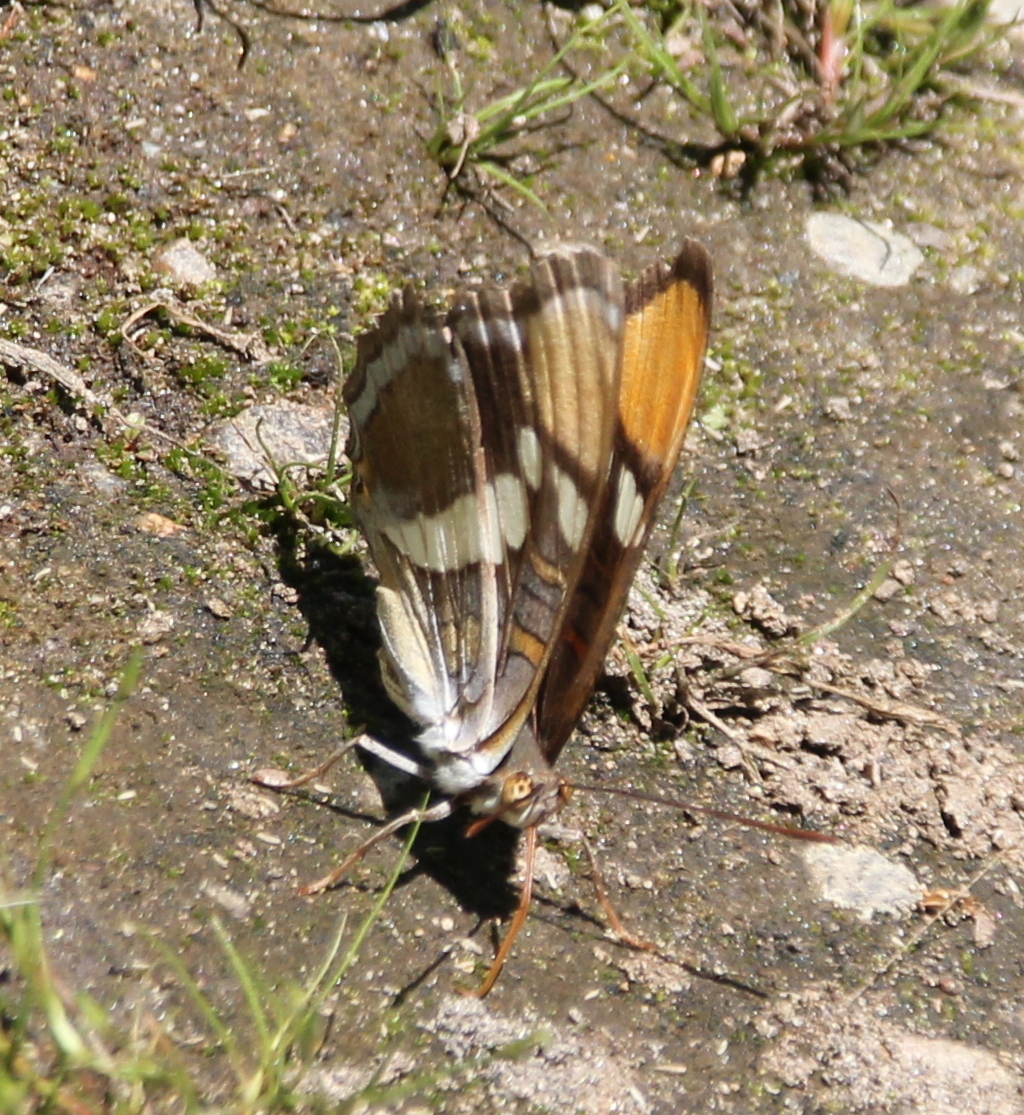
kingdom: Animalia
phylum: Arthropoda
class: Insecta
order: Lepidoptera
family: Nymphalidae
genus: Limenitis
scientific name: Limenitis bredowii
